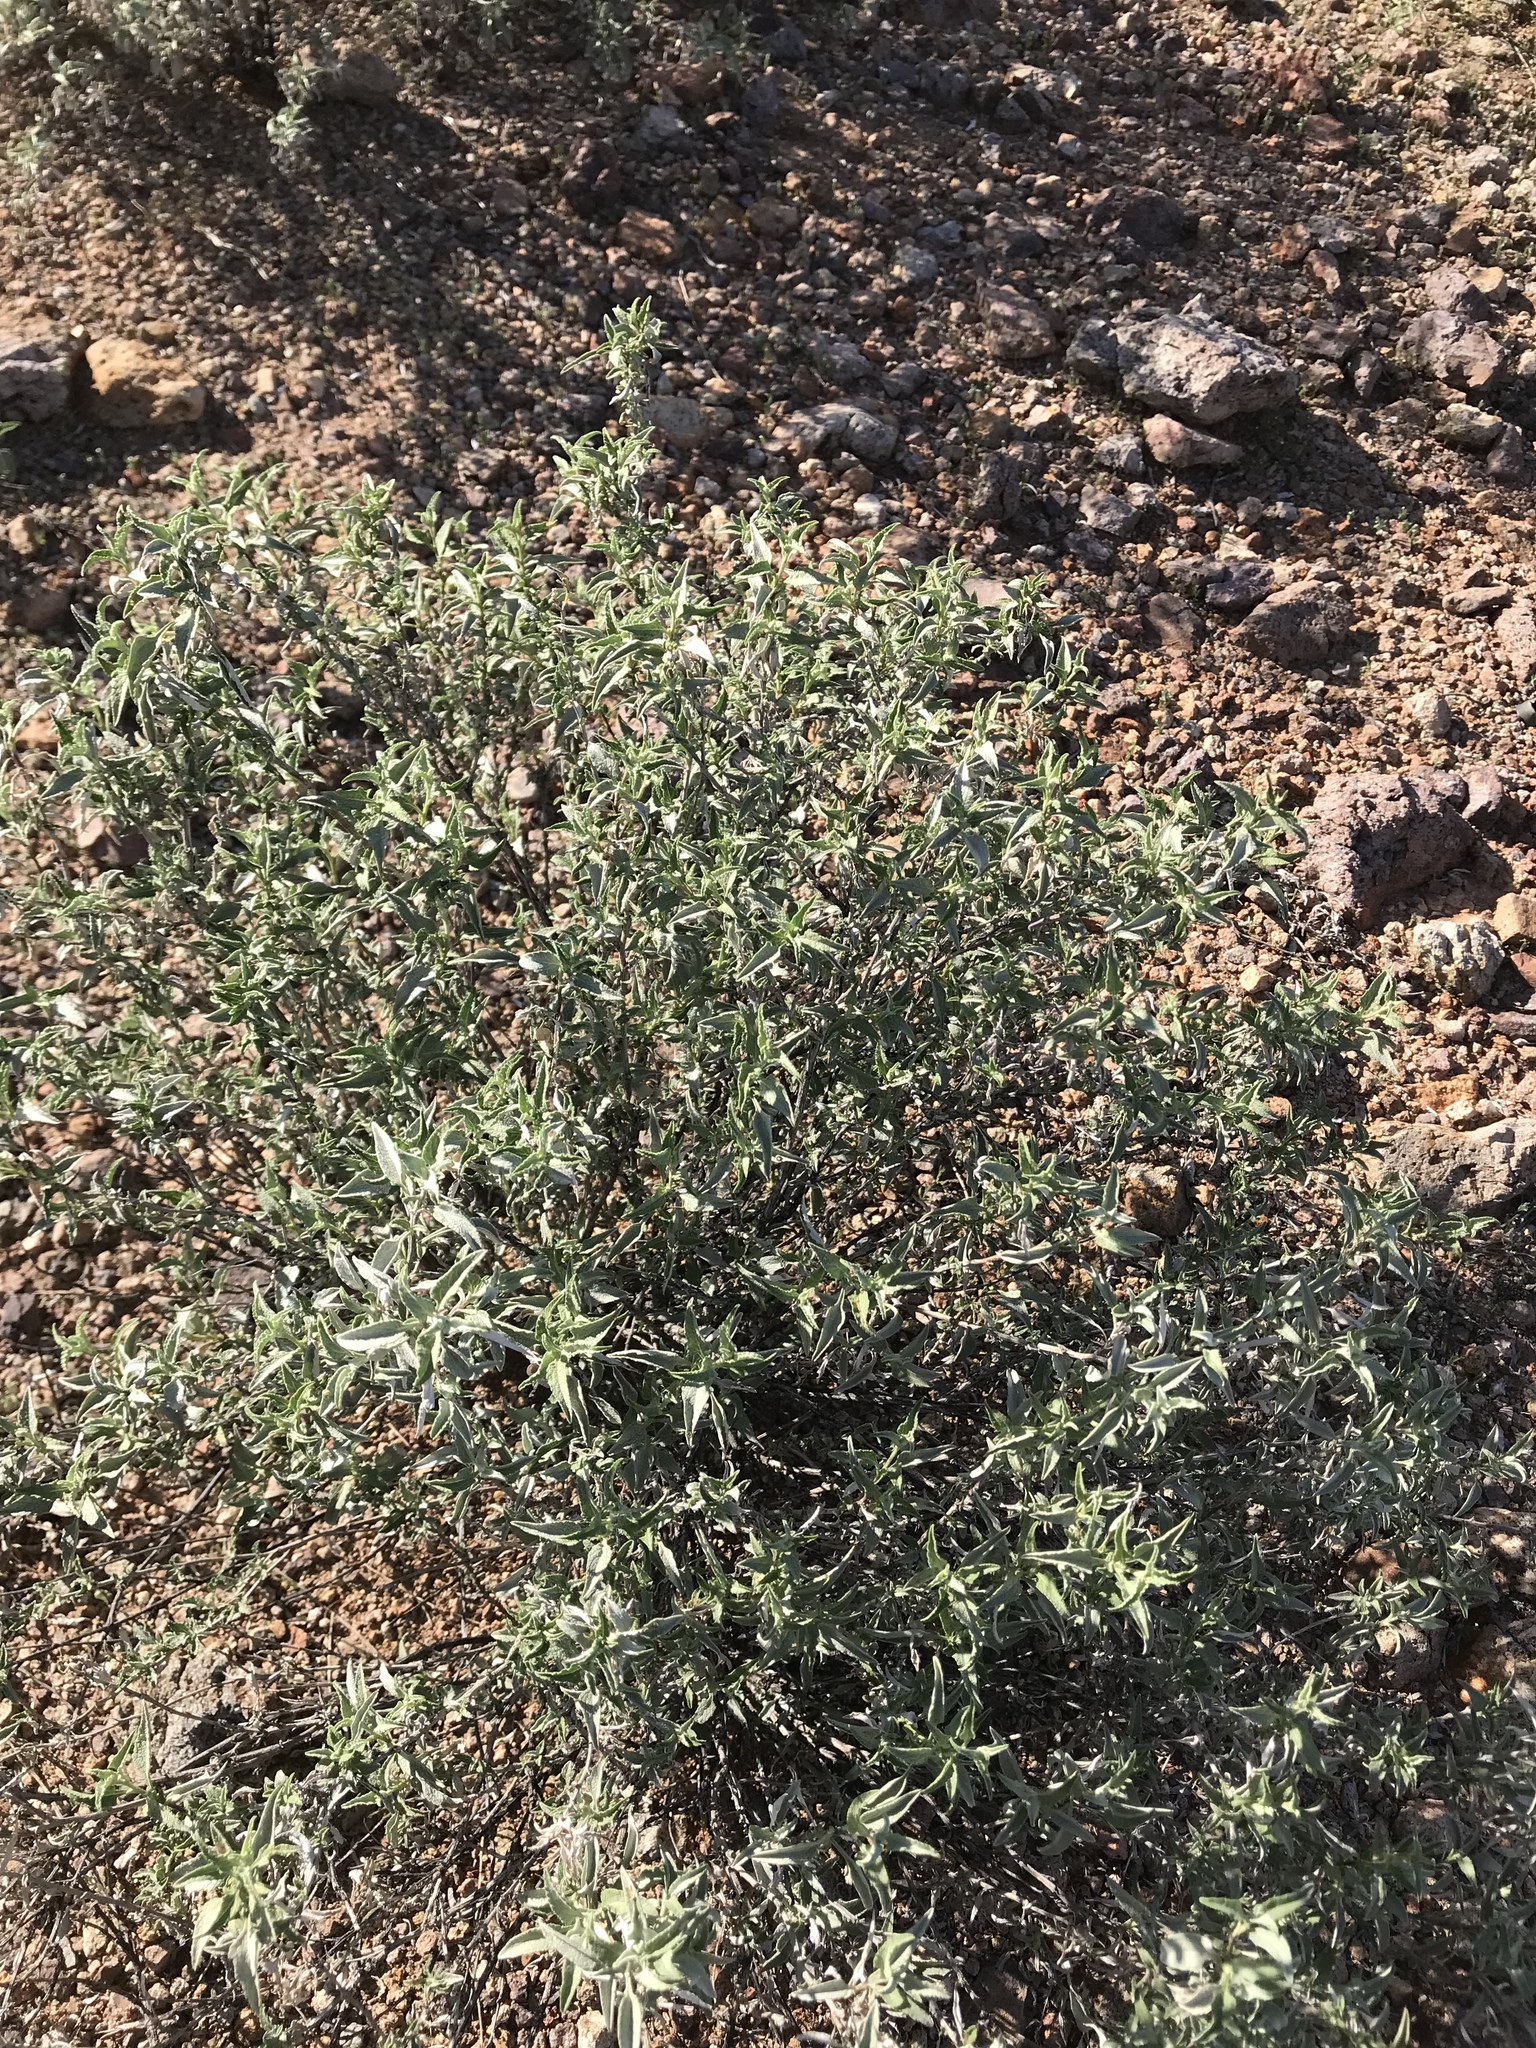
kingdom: Plantae
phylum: Tracheophyta
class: Magnoliopsida
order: Asterales
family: Asteraceae
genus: Ambrosia
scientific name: Ambrosia deltoidea
